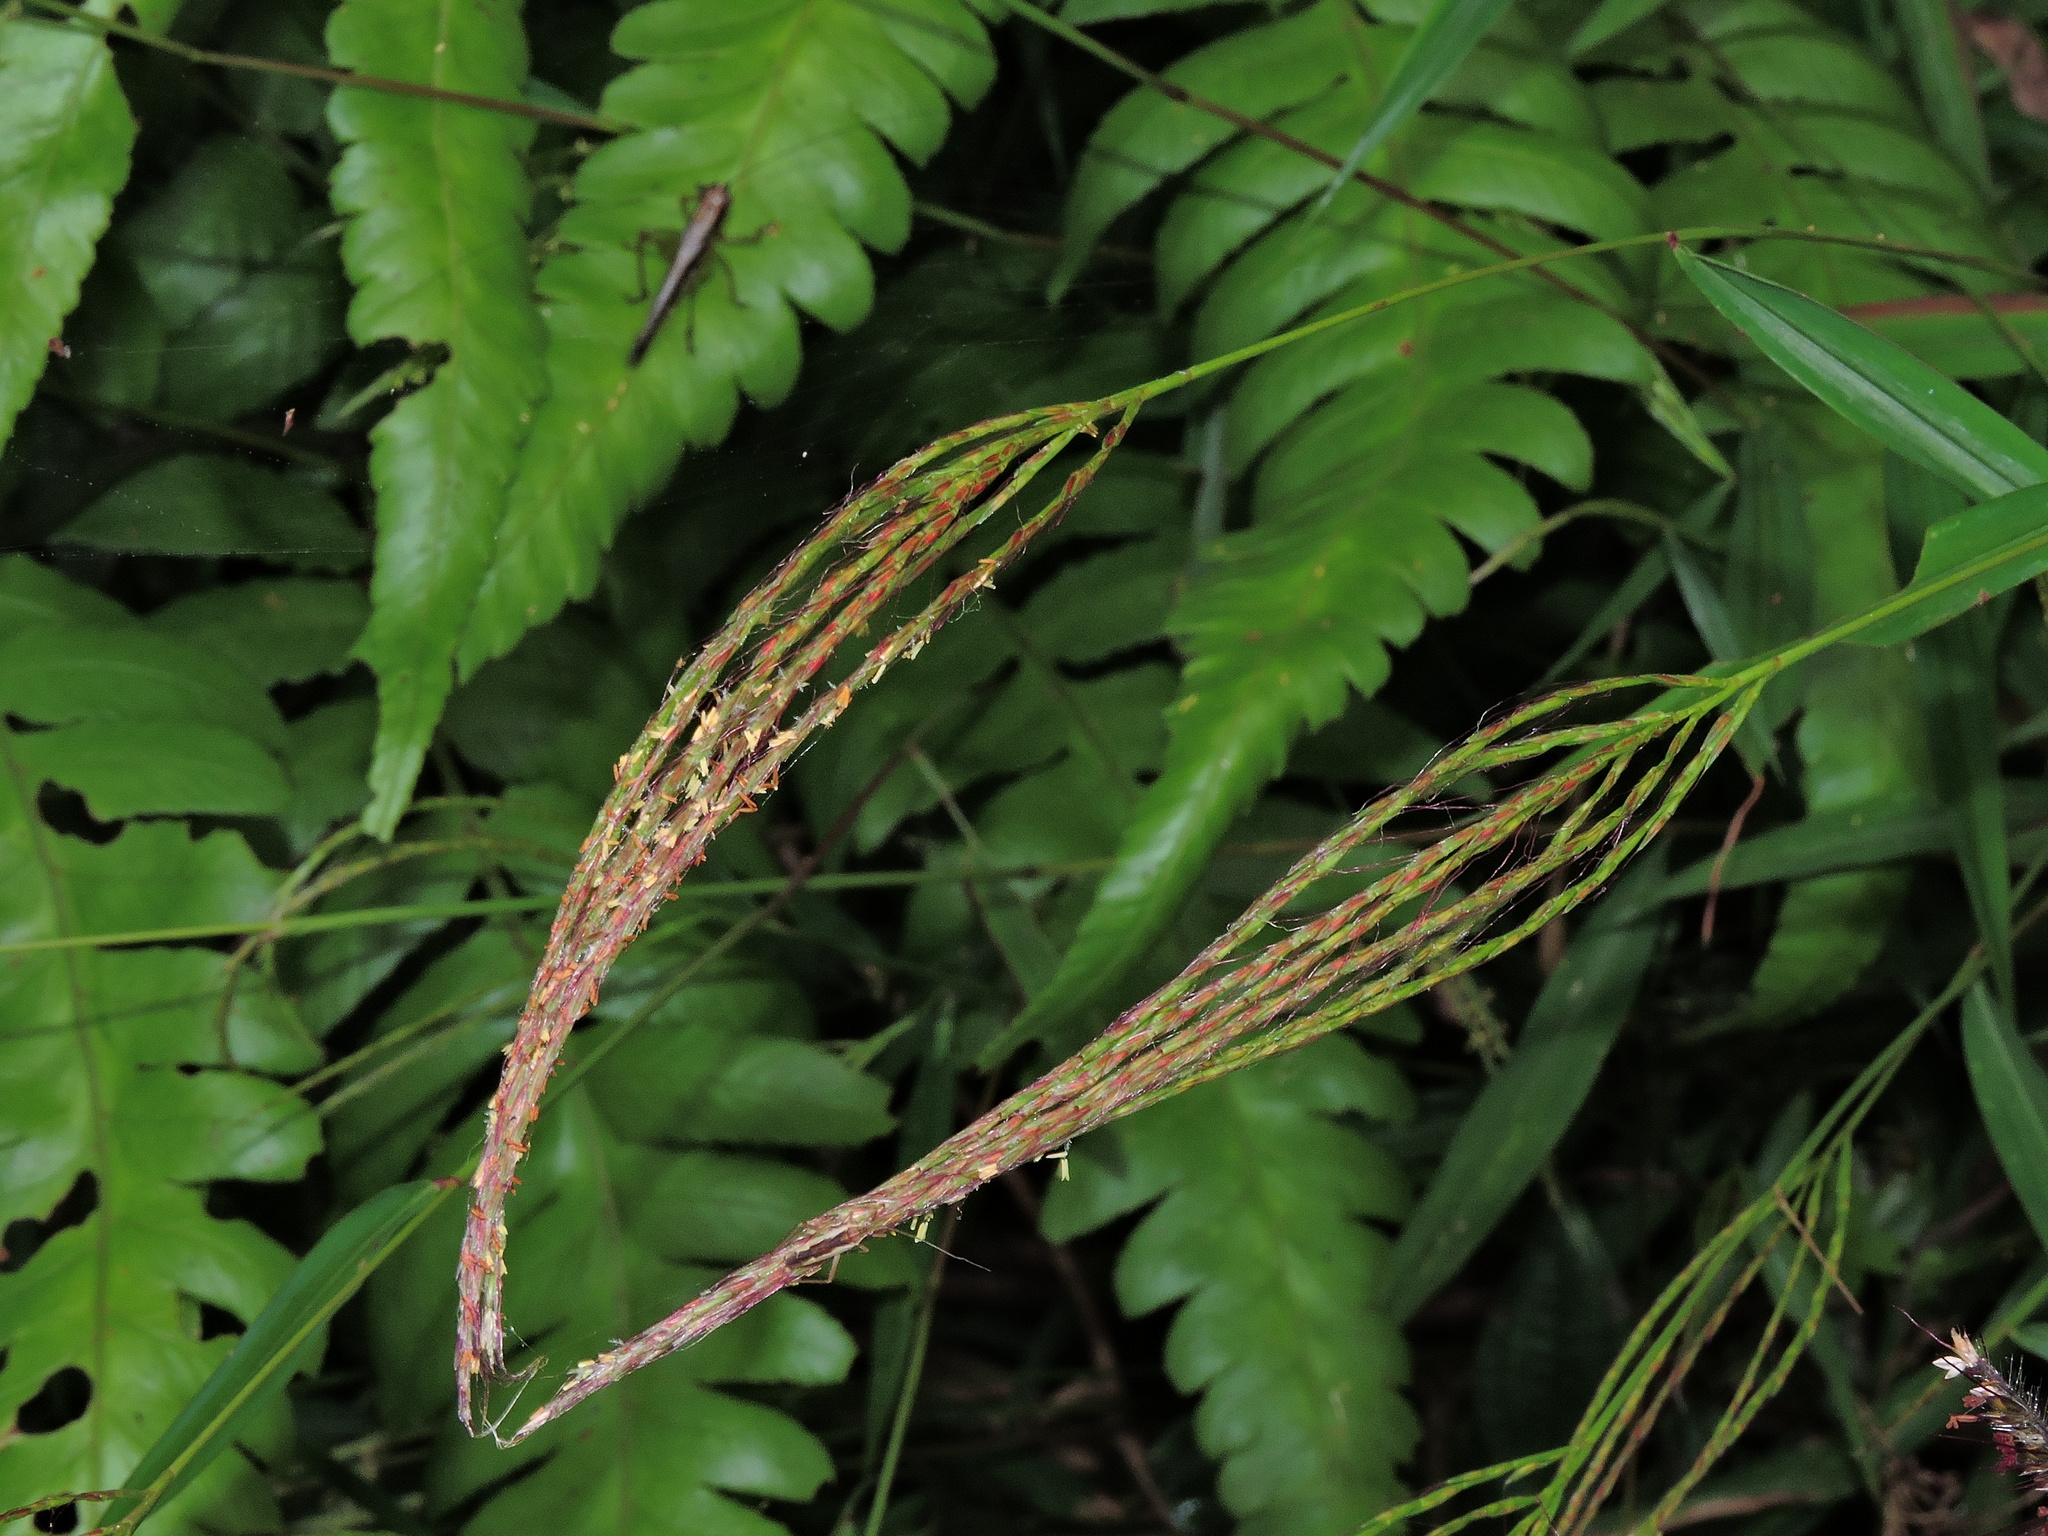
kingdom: Plantae
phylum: Tracheophyta
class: Liliopsida
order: Poales
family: Poaceae
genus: Microstegium
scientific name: Microstegium fasciculatum
